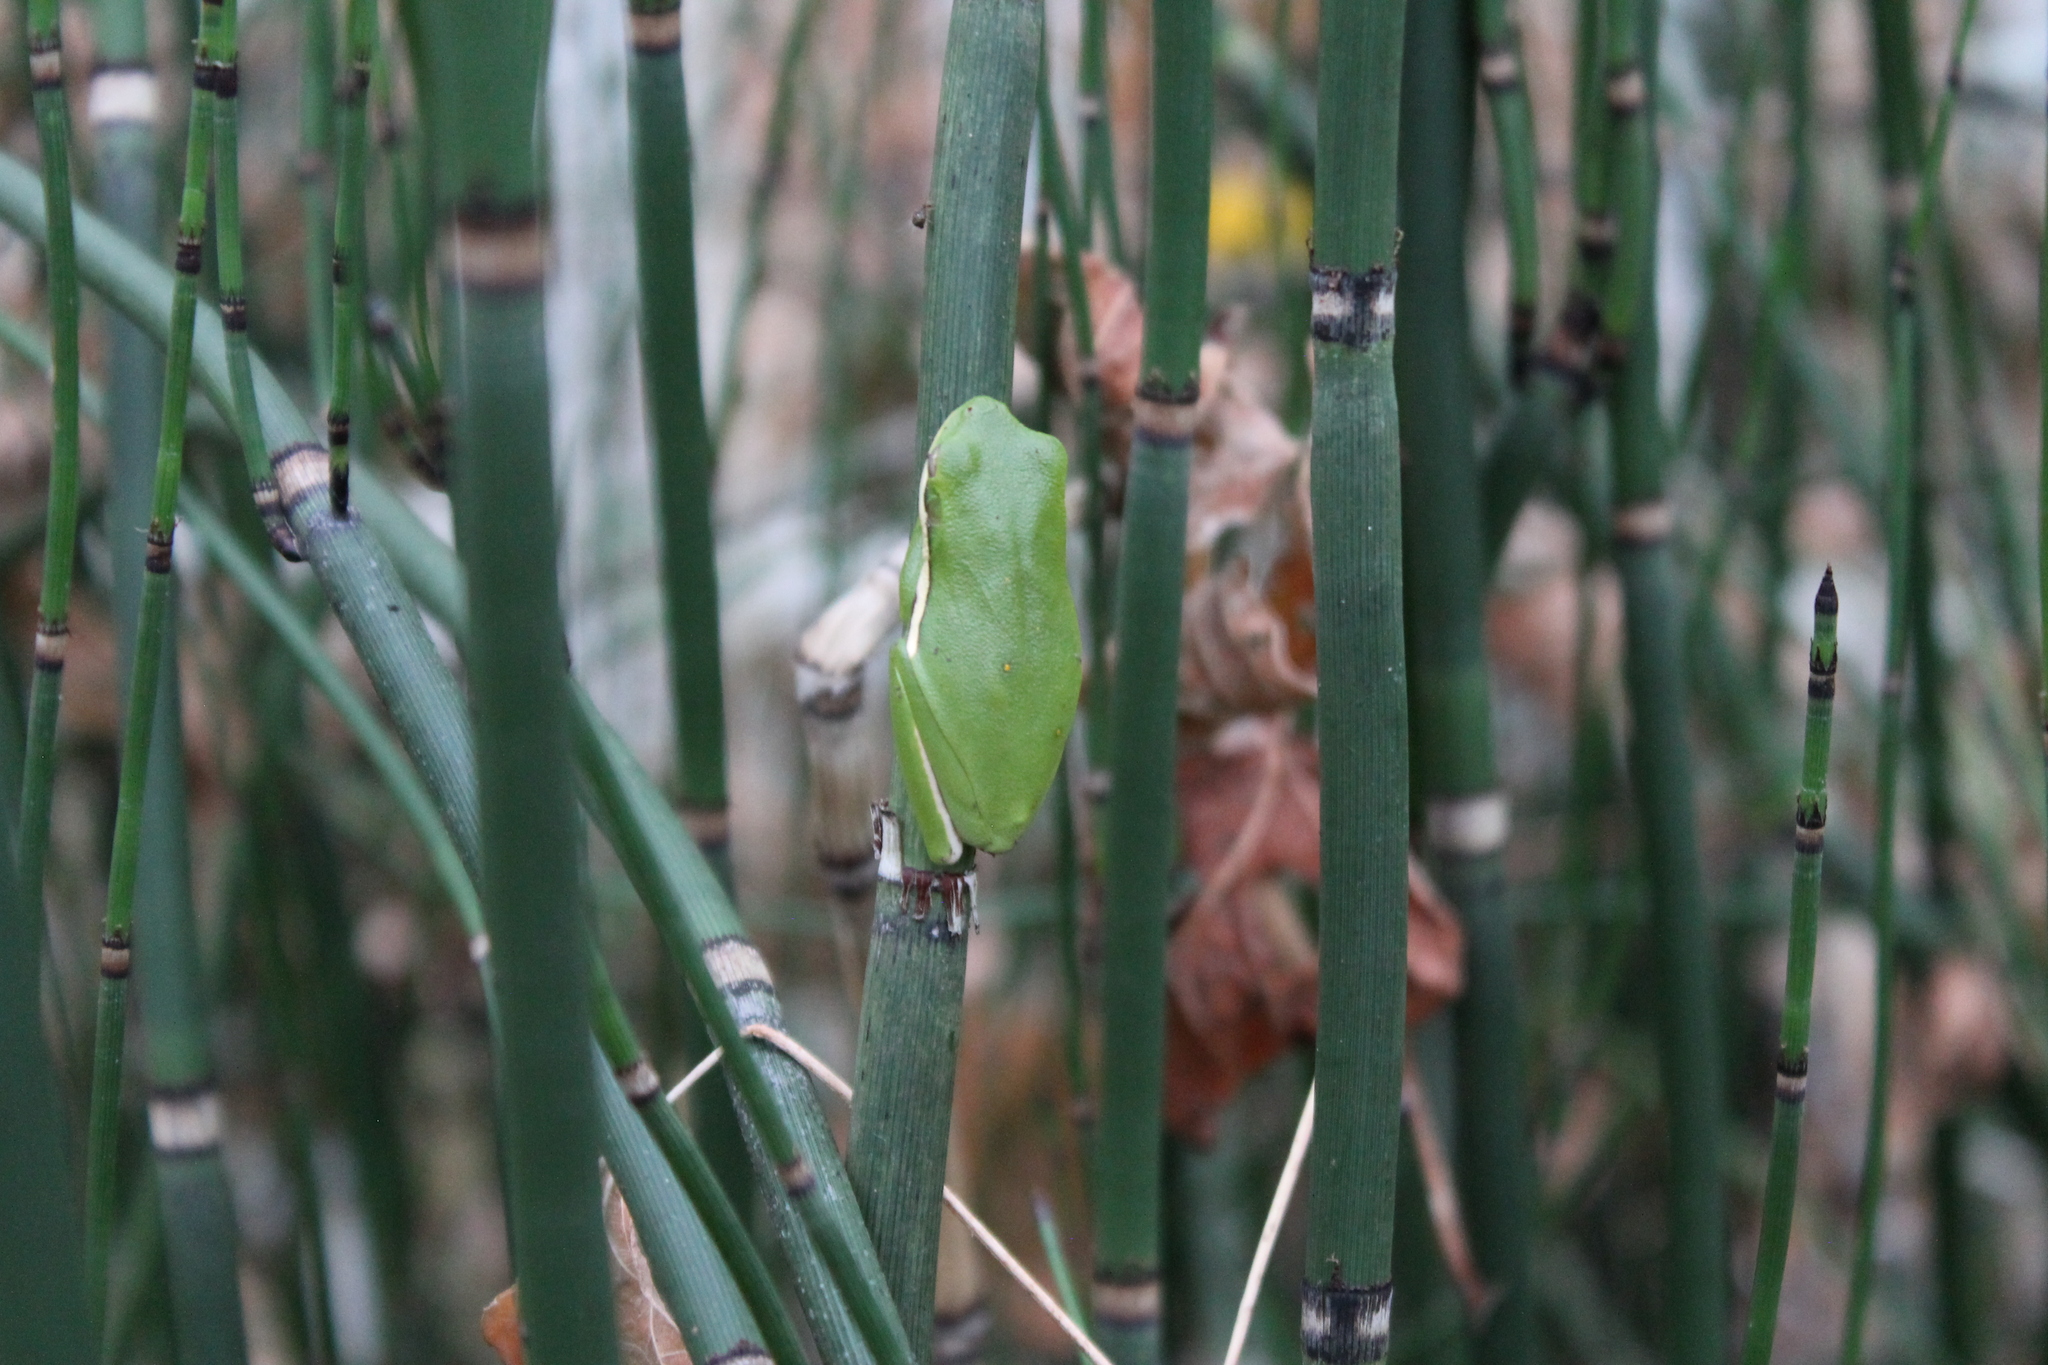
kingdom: Animalia
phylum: Chordata
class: Amphibia
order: Anura
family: Hylidae
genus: Dryophytes
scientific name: Dryophytes cinereus
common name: Green treefrog
